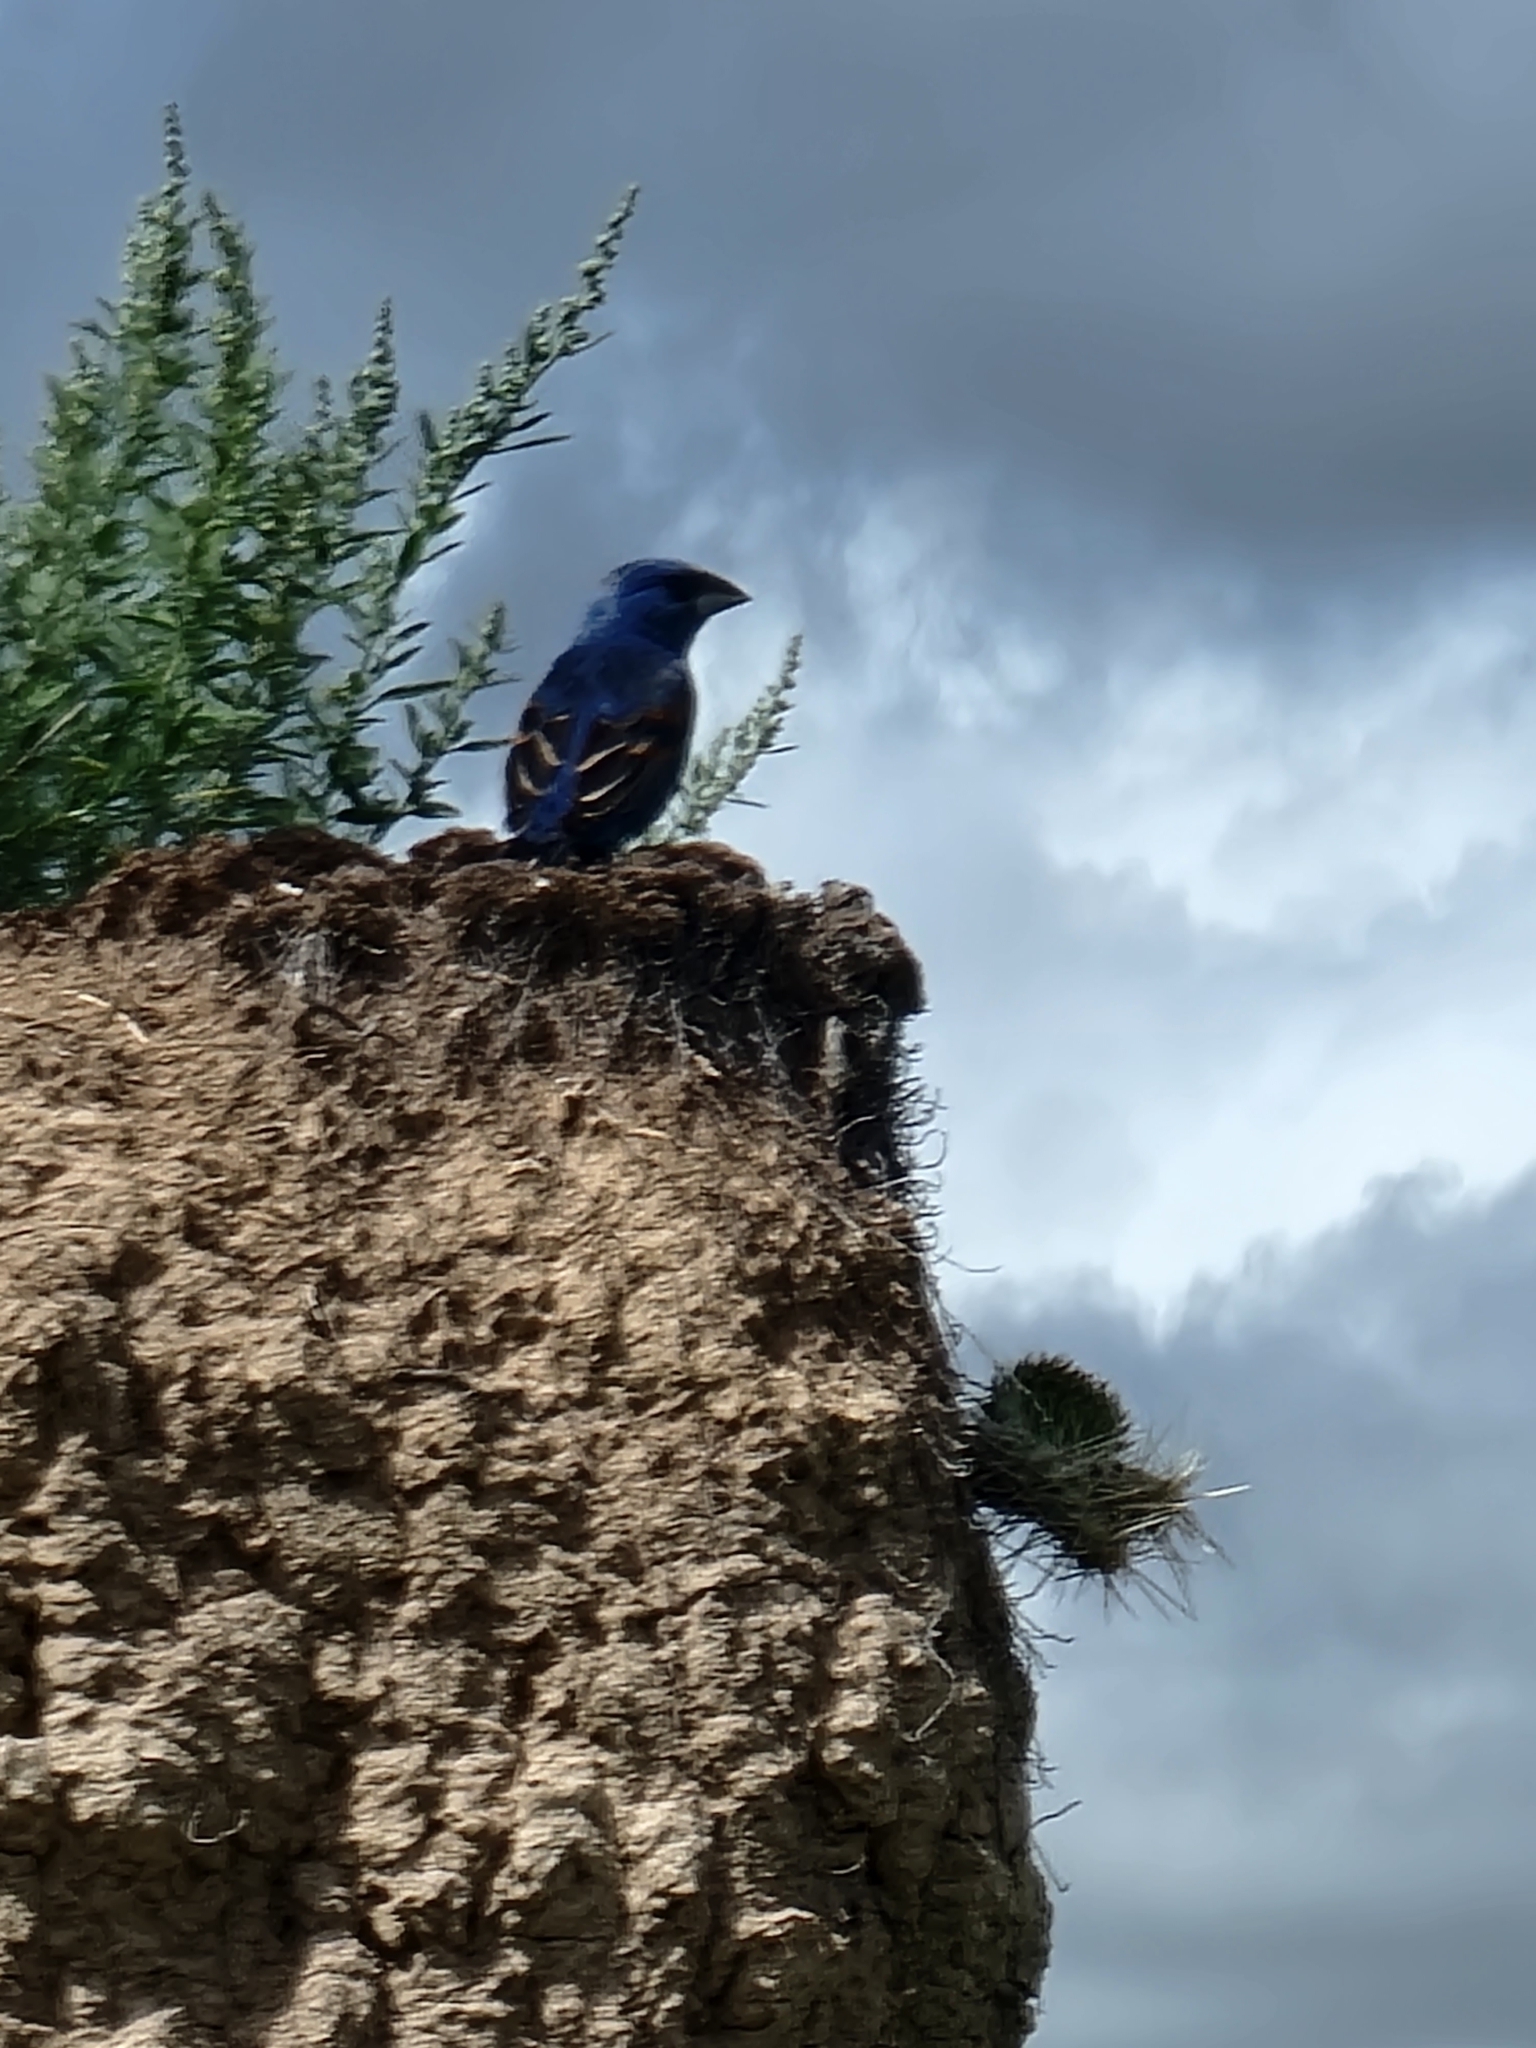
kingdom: Animalia
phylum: Chordata
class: Aves
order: Passeriformes
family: Cardinalidae
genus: Passerina
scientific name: Passerina caerulea
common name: Blue grosbeak
